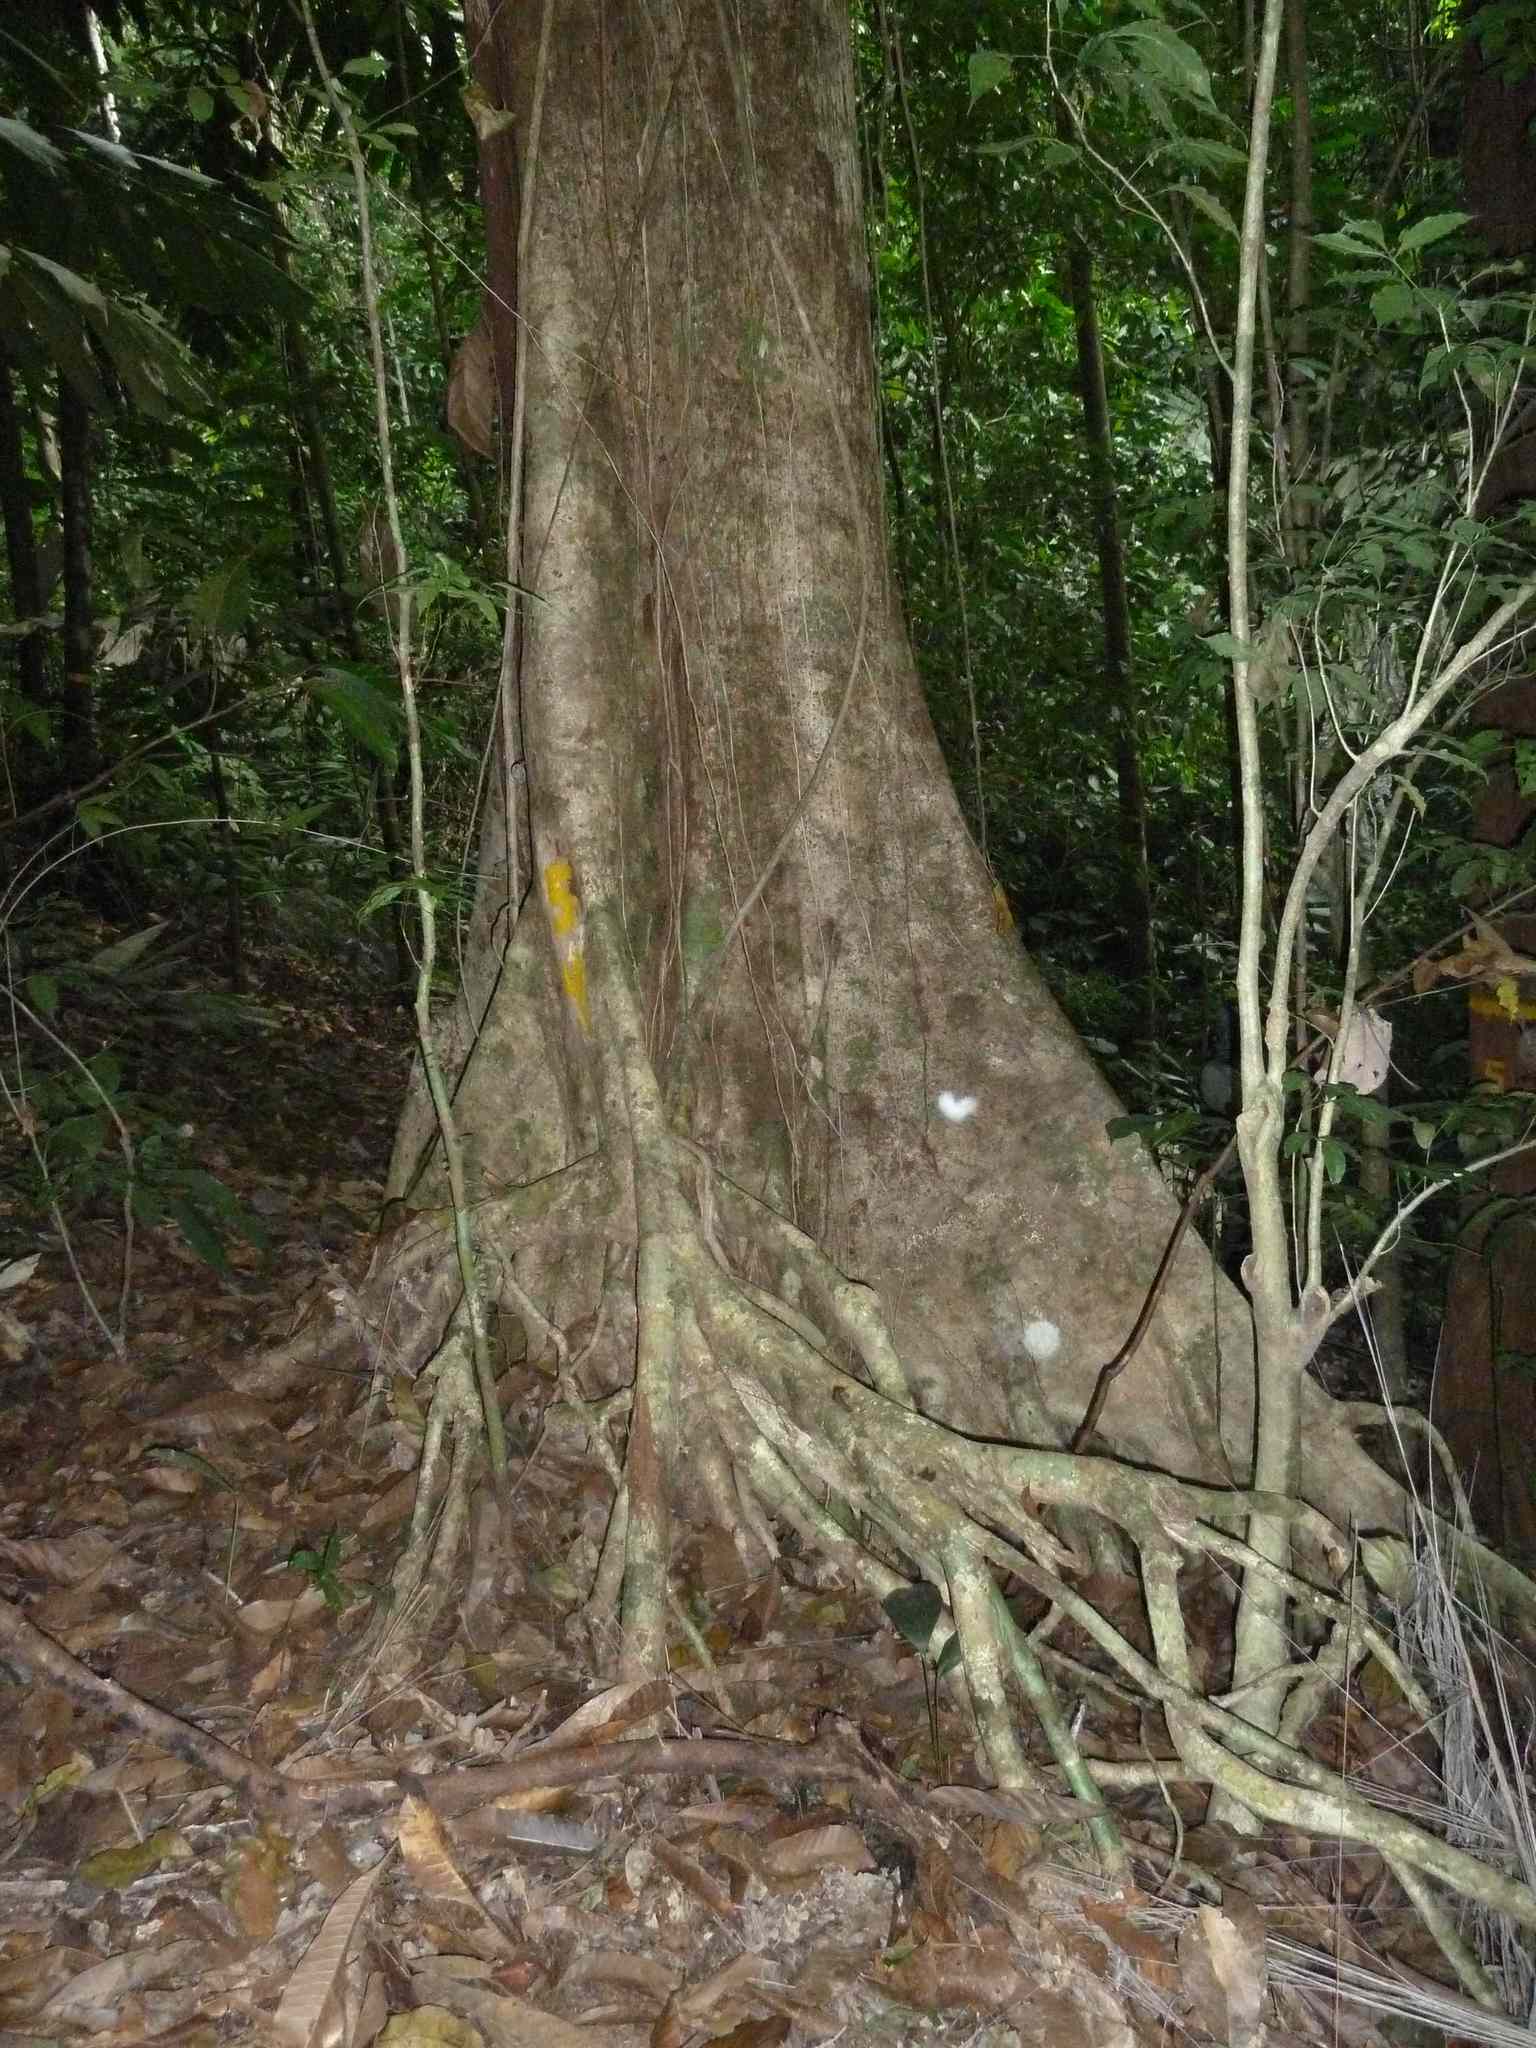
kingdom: Plantae
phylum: Tracheophyta
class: Magnoliopsida
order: Malvales
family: Malvaceae
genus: Sterculia
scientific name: Sterculia allenii
